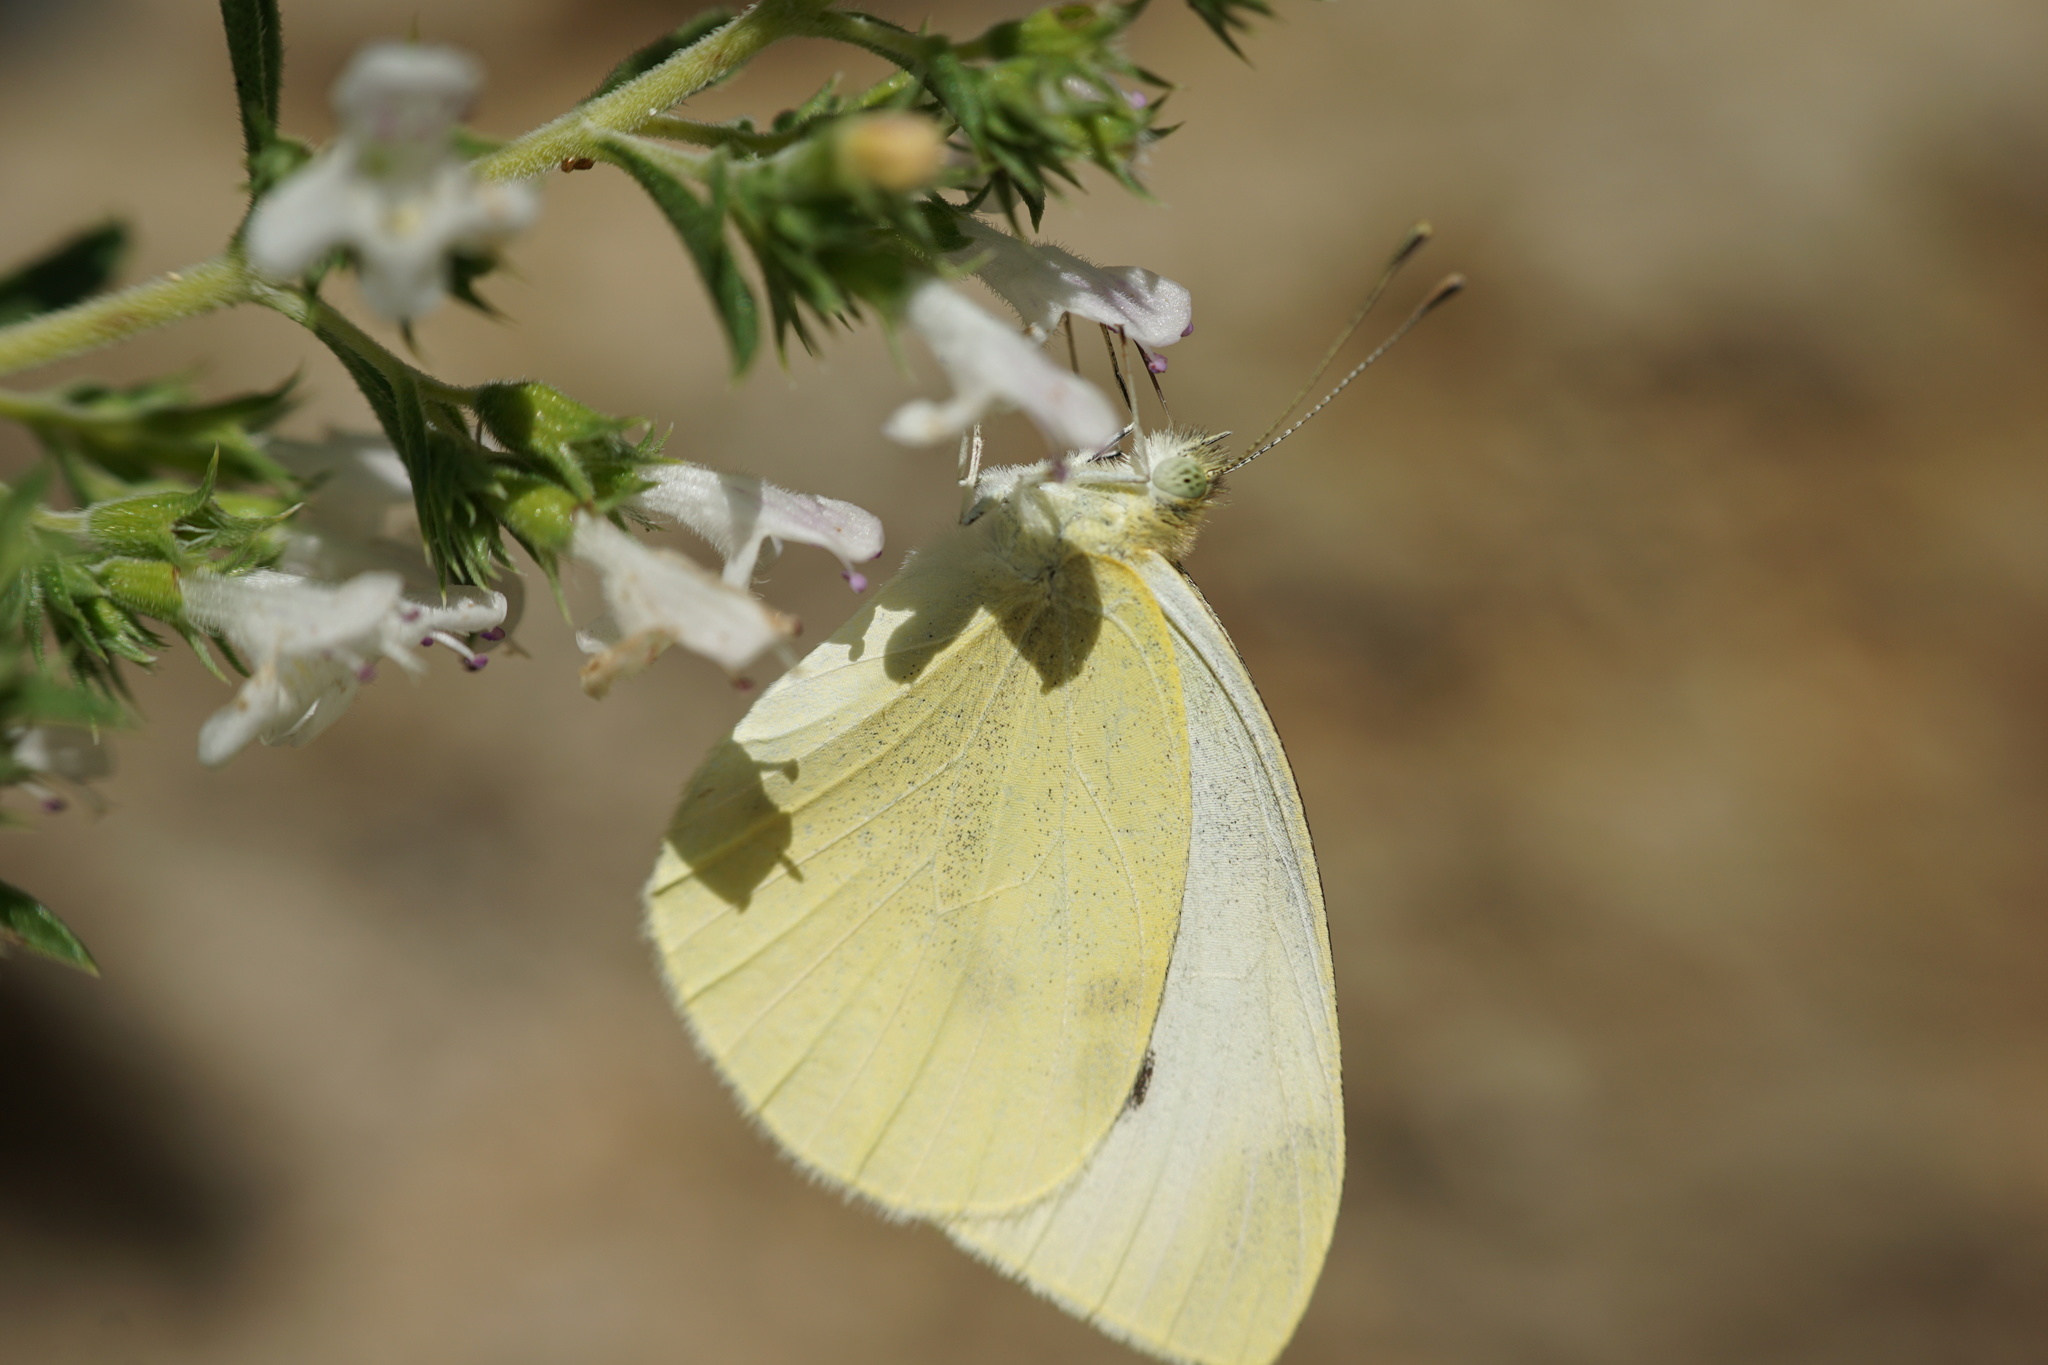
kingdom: Animalia
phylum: Arthropoda
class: Insecta
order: Lepidoptera
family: Pieridae
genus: Pieris
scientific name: Pieris rapae
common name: Small white
